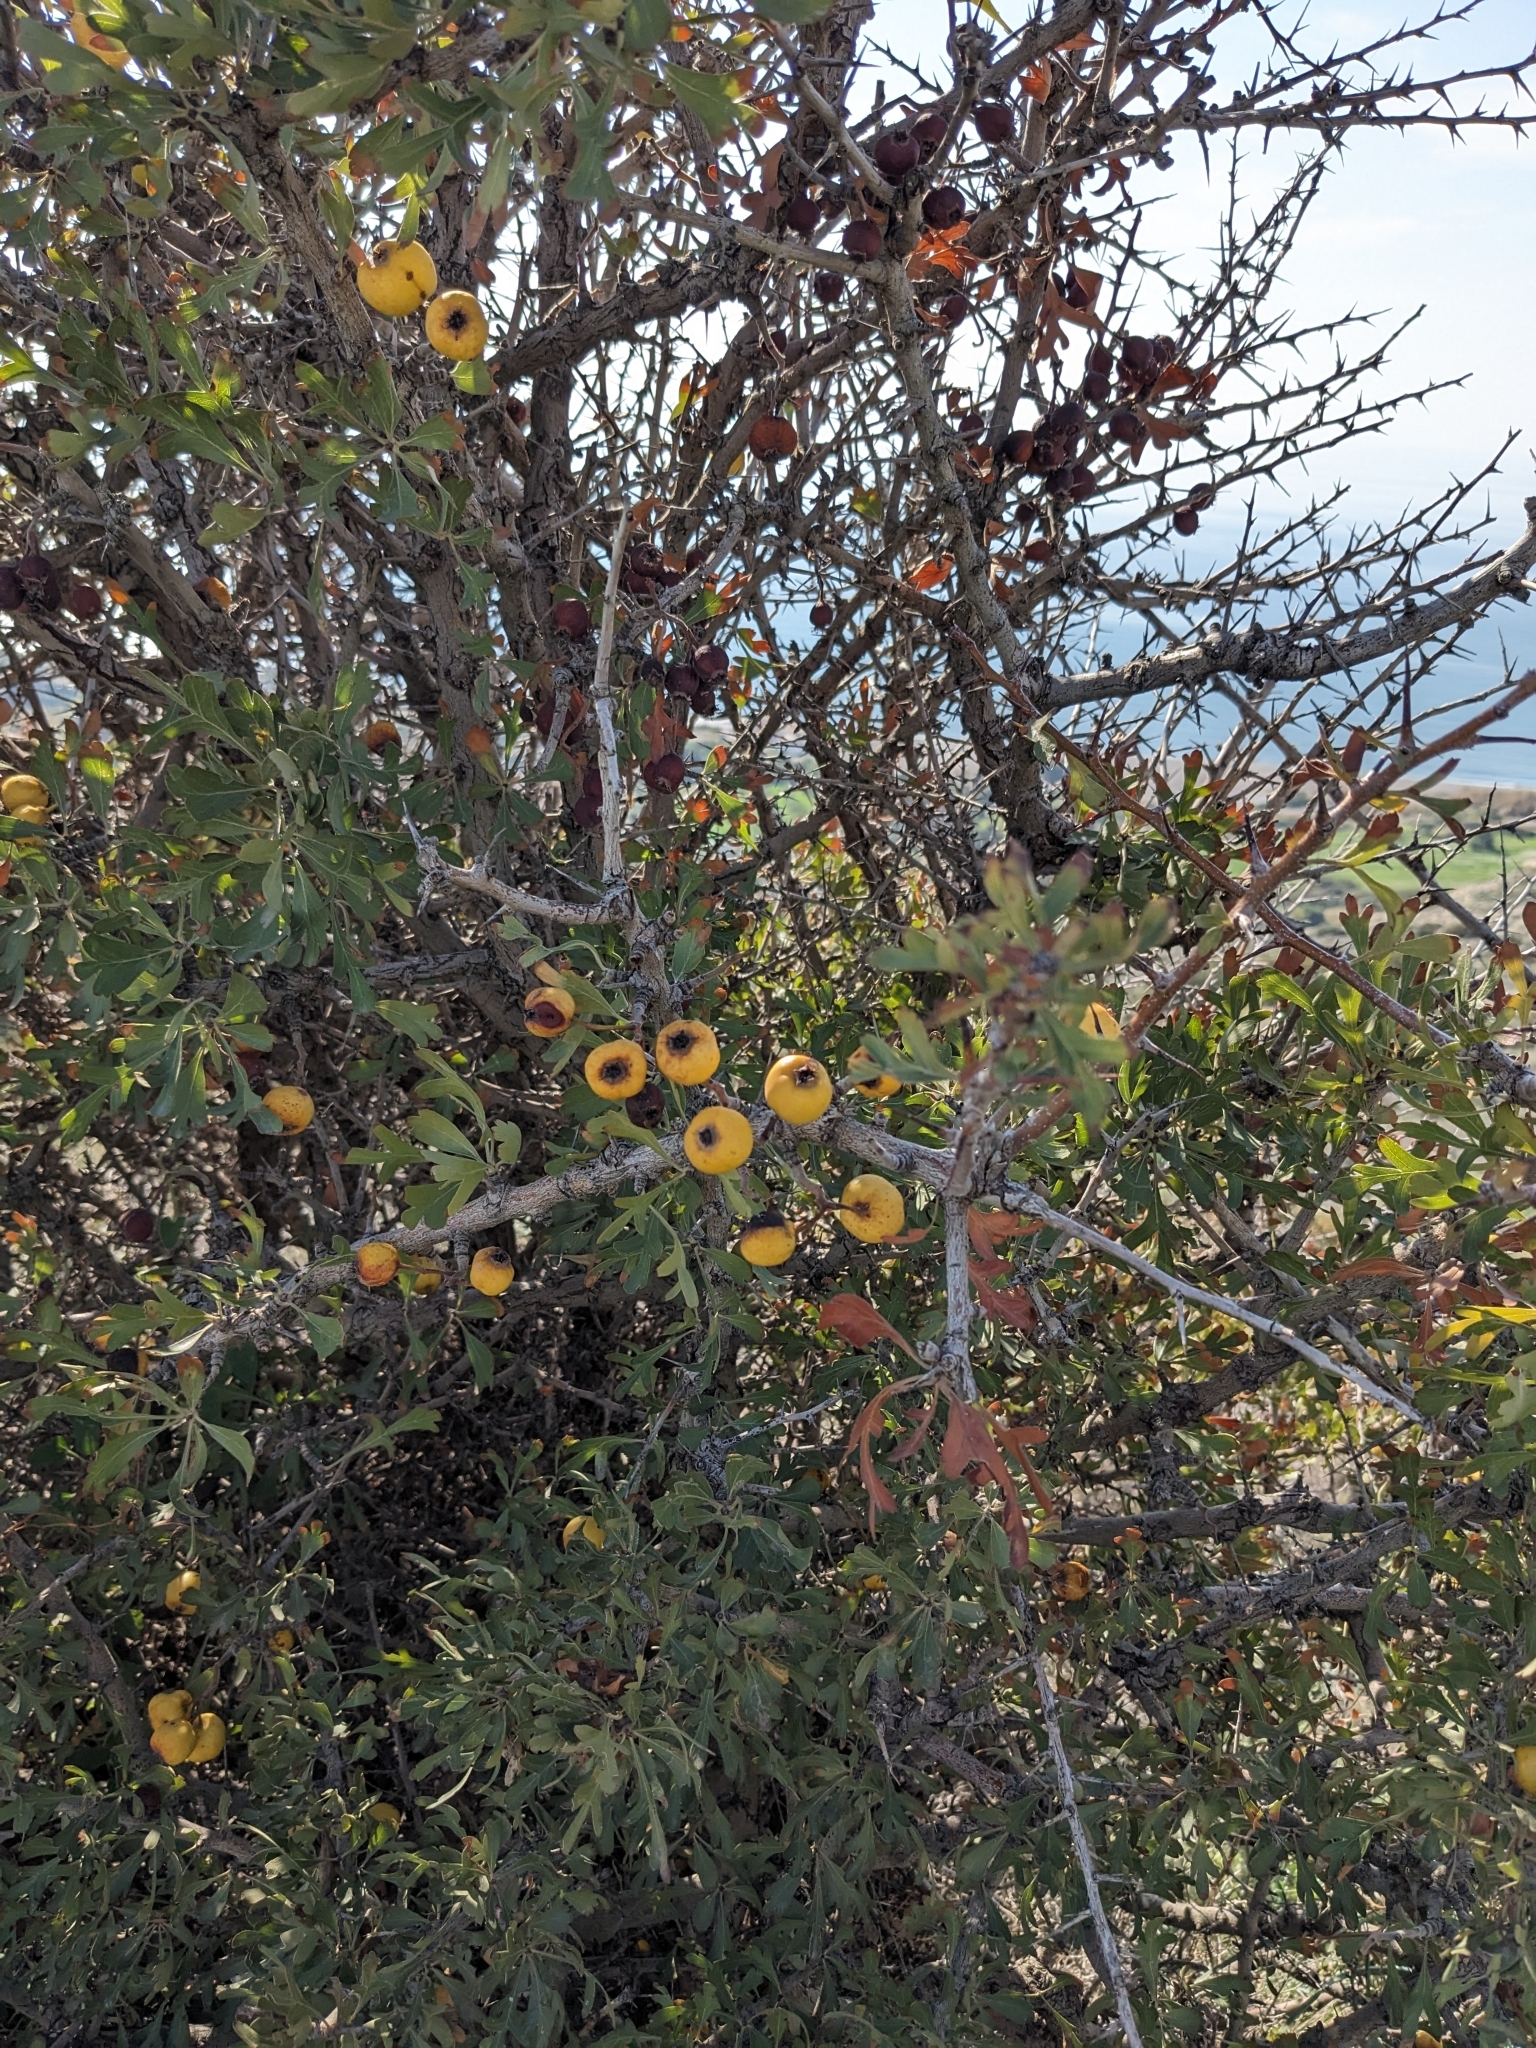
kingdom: Plantae
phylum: Tracheophyta
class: Magnoliopsida
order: Rosales
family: Rosaceae
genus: Crataegus
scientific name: Crataegus azarolus
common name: Azarole
